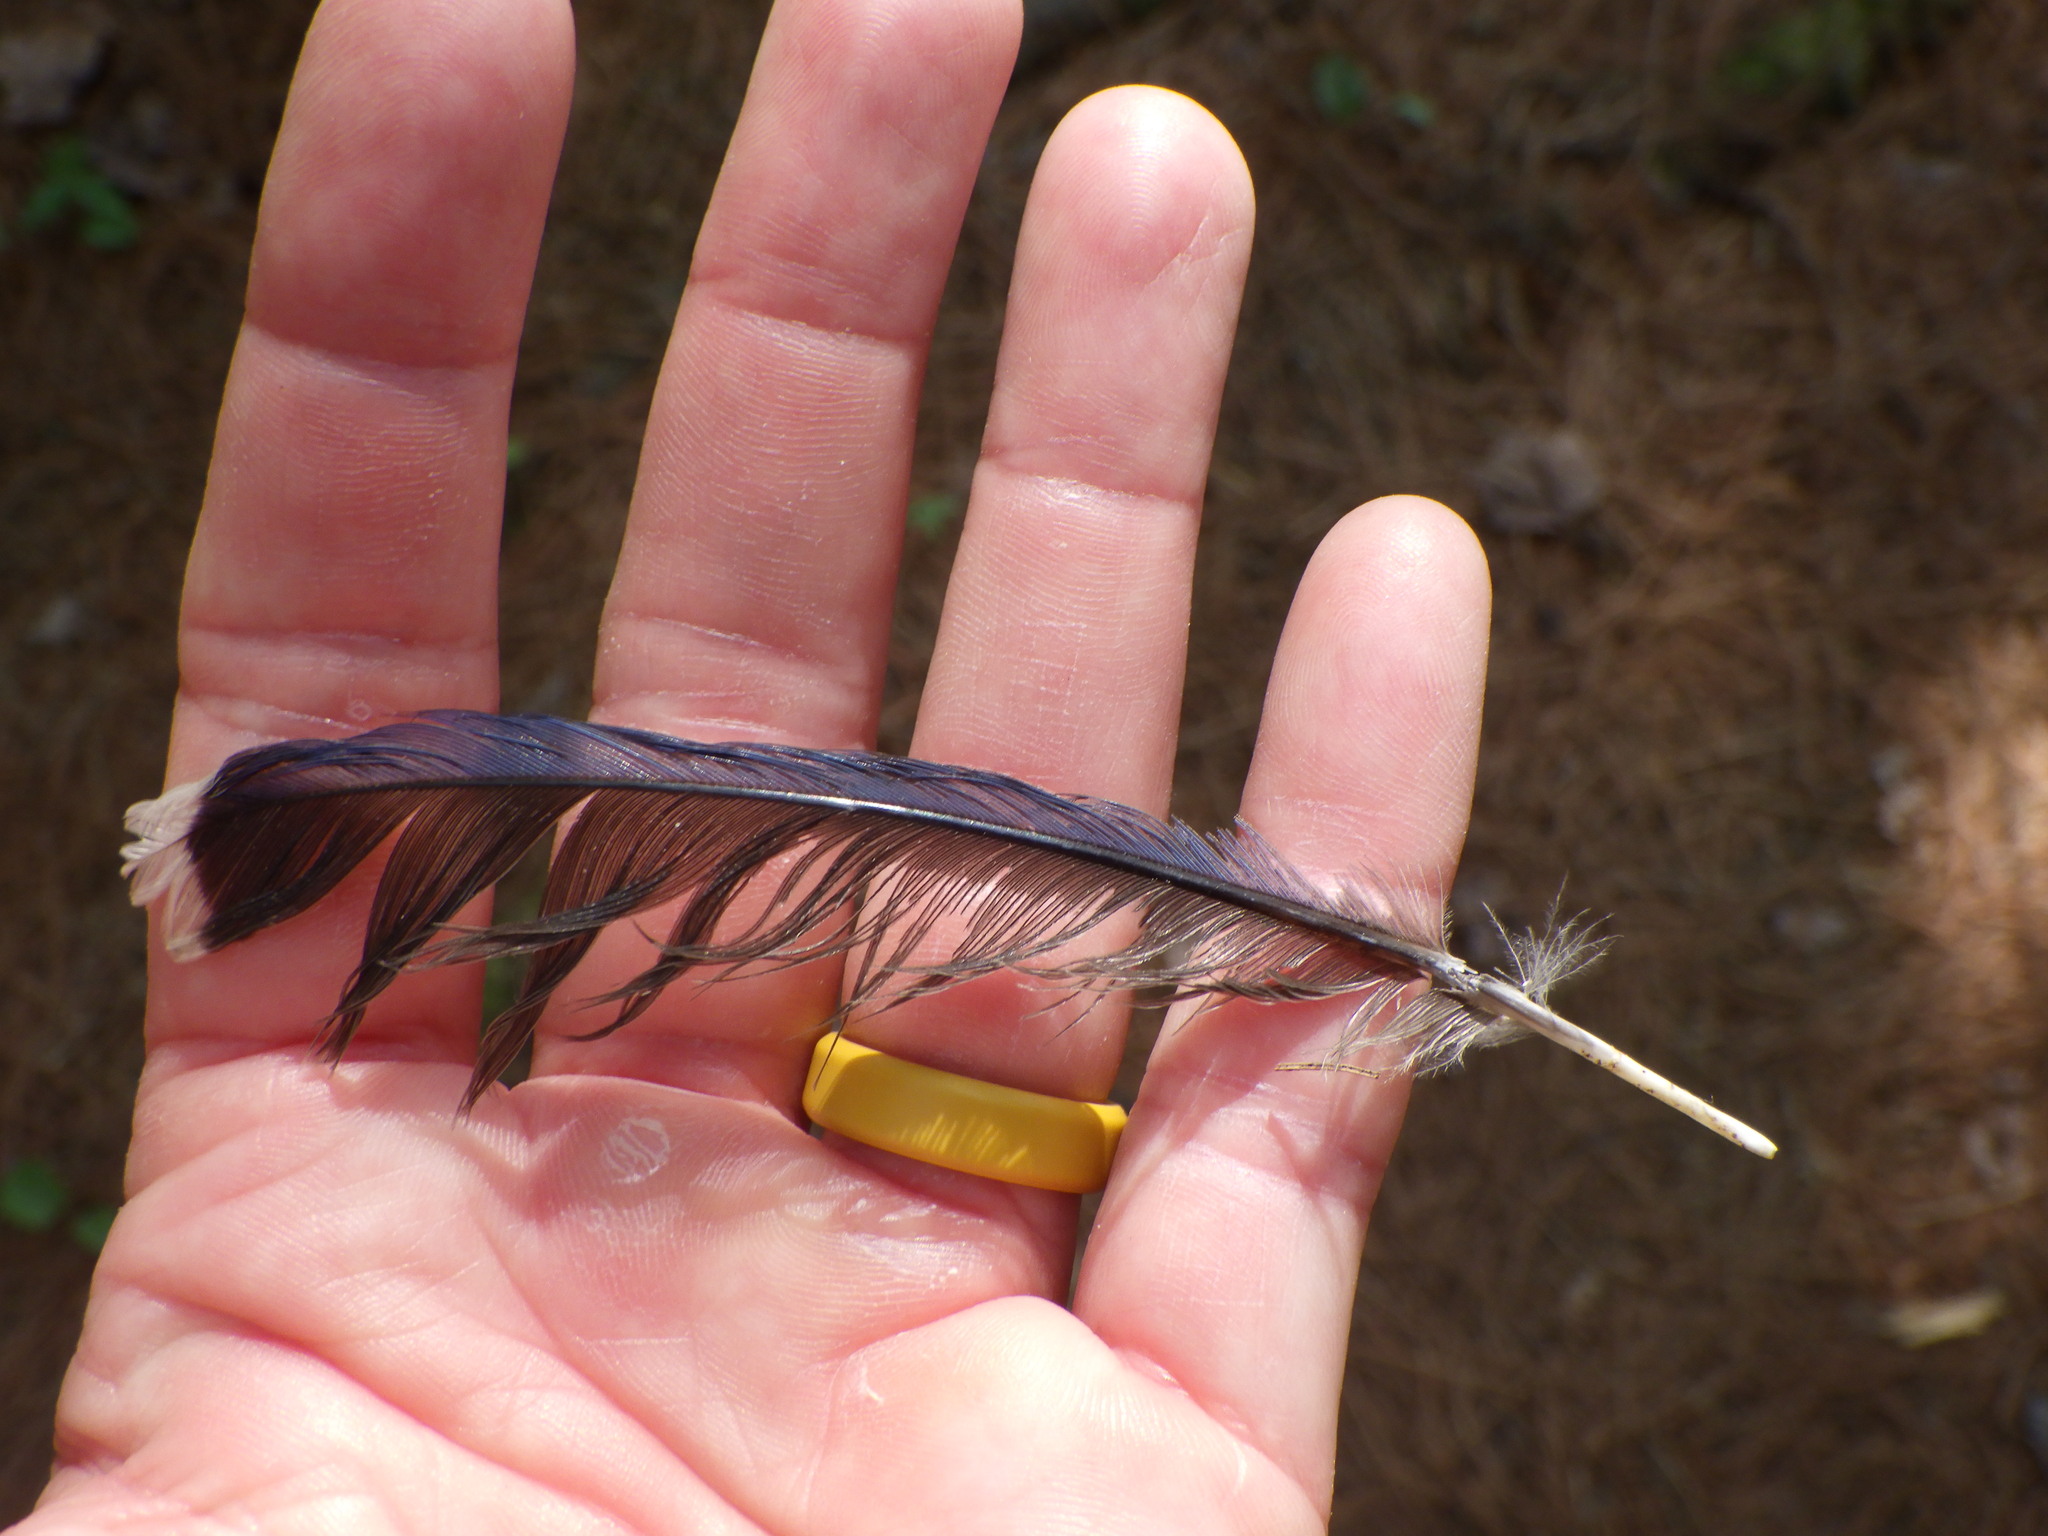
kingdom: Animalia
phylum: Chordata
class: Aves
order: Passeriformes
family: Corvidae
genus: Cyanocitta
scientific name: Cyanocitta cristata
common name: Blue jay
